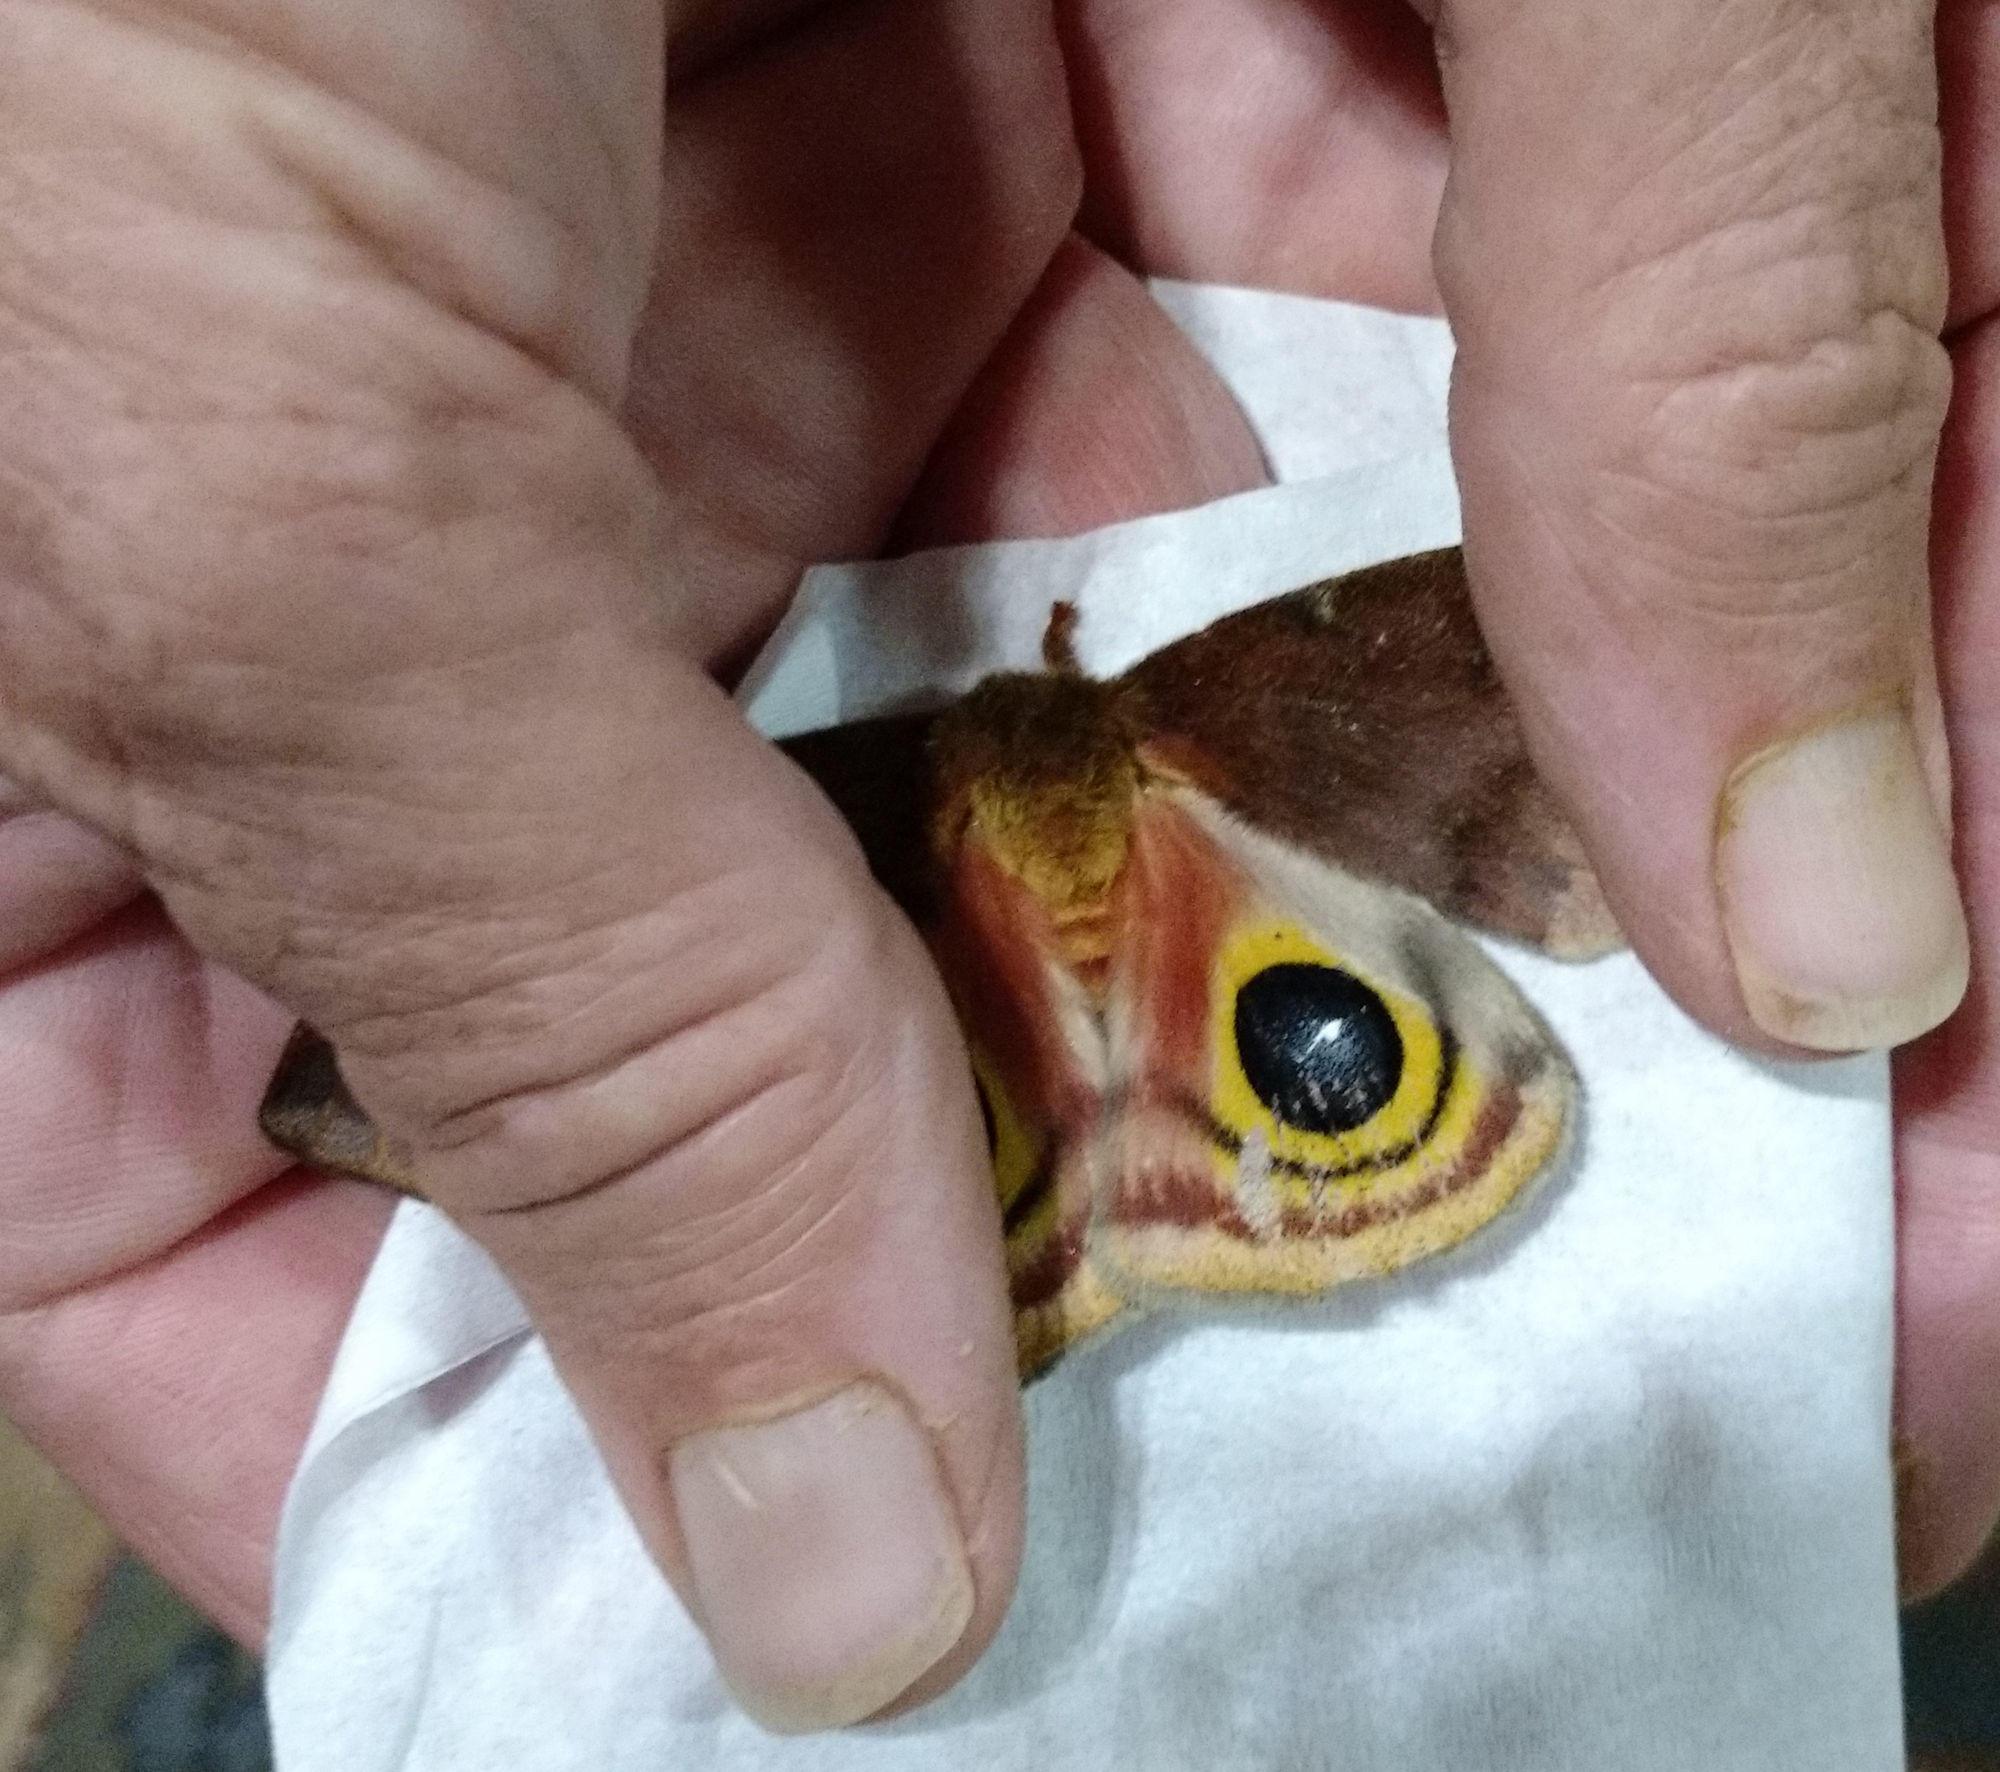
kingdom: Animalia
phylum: Arthropoda
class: Insecta
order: Lepidoptera
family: Saturniidae
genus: Automeris
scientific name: Automeris io
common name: Io moth
